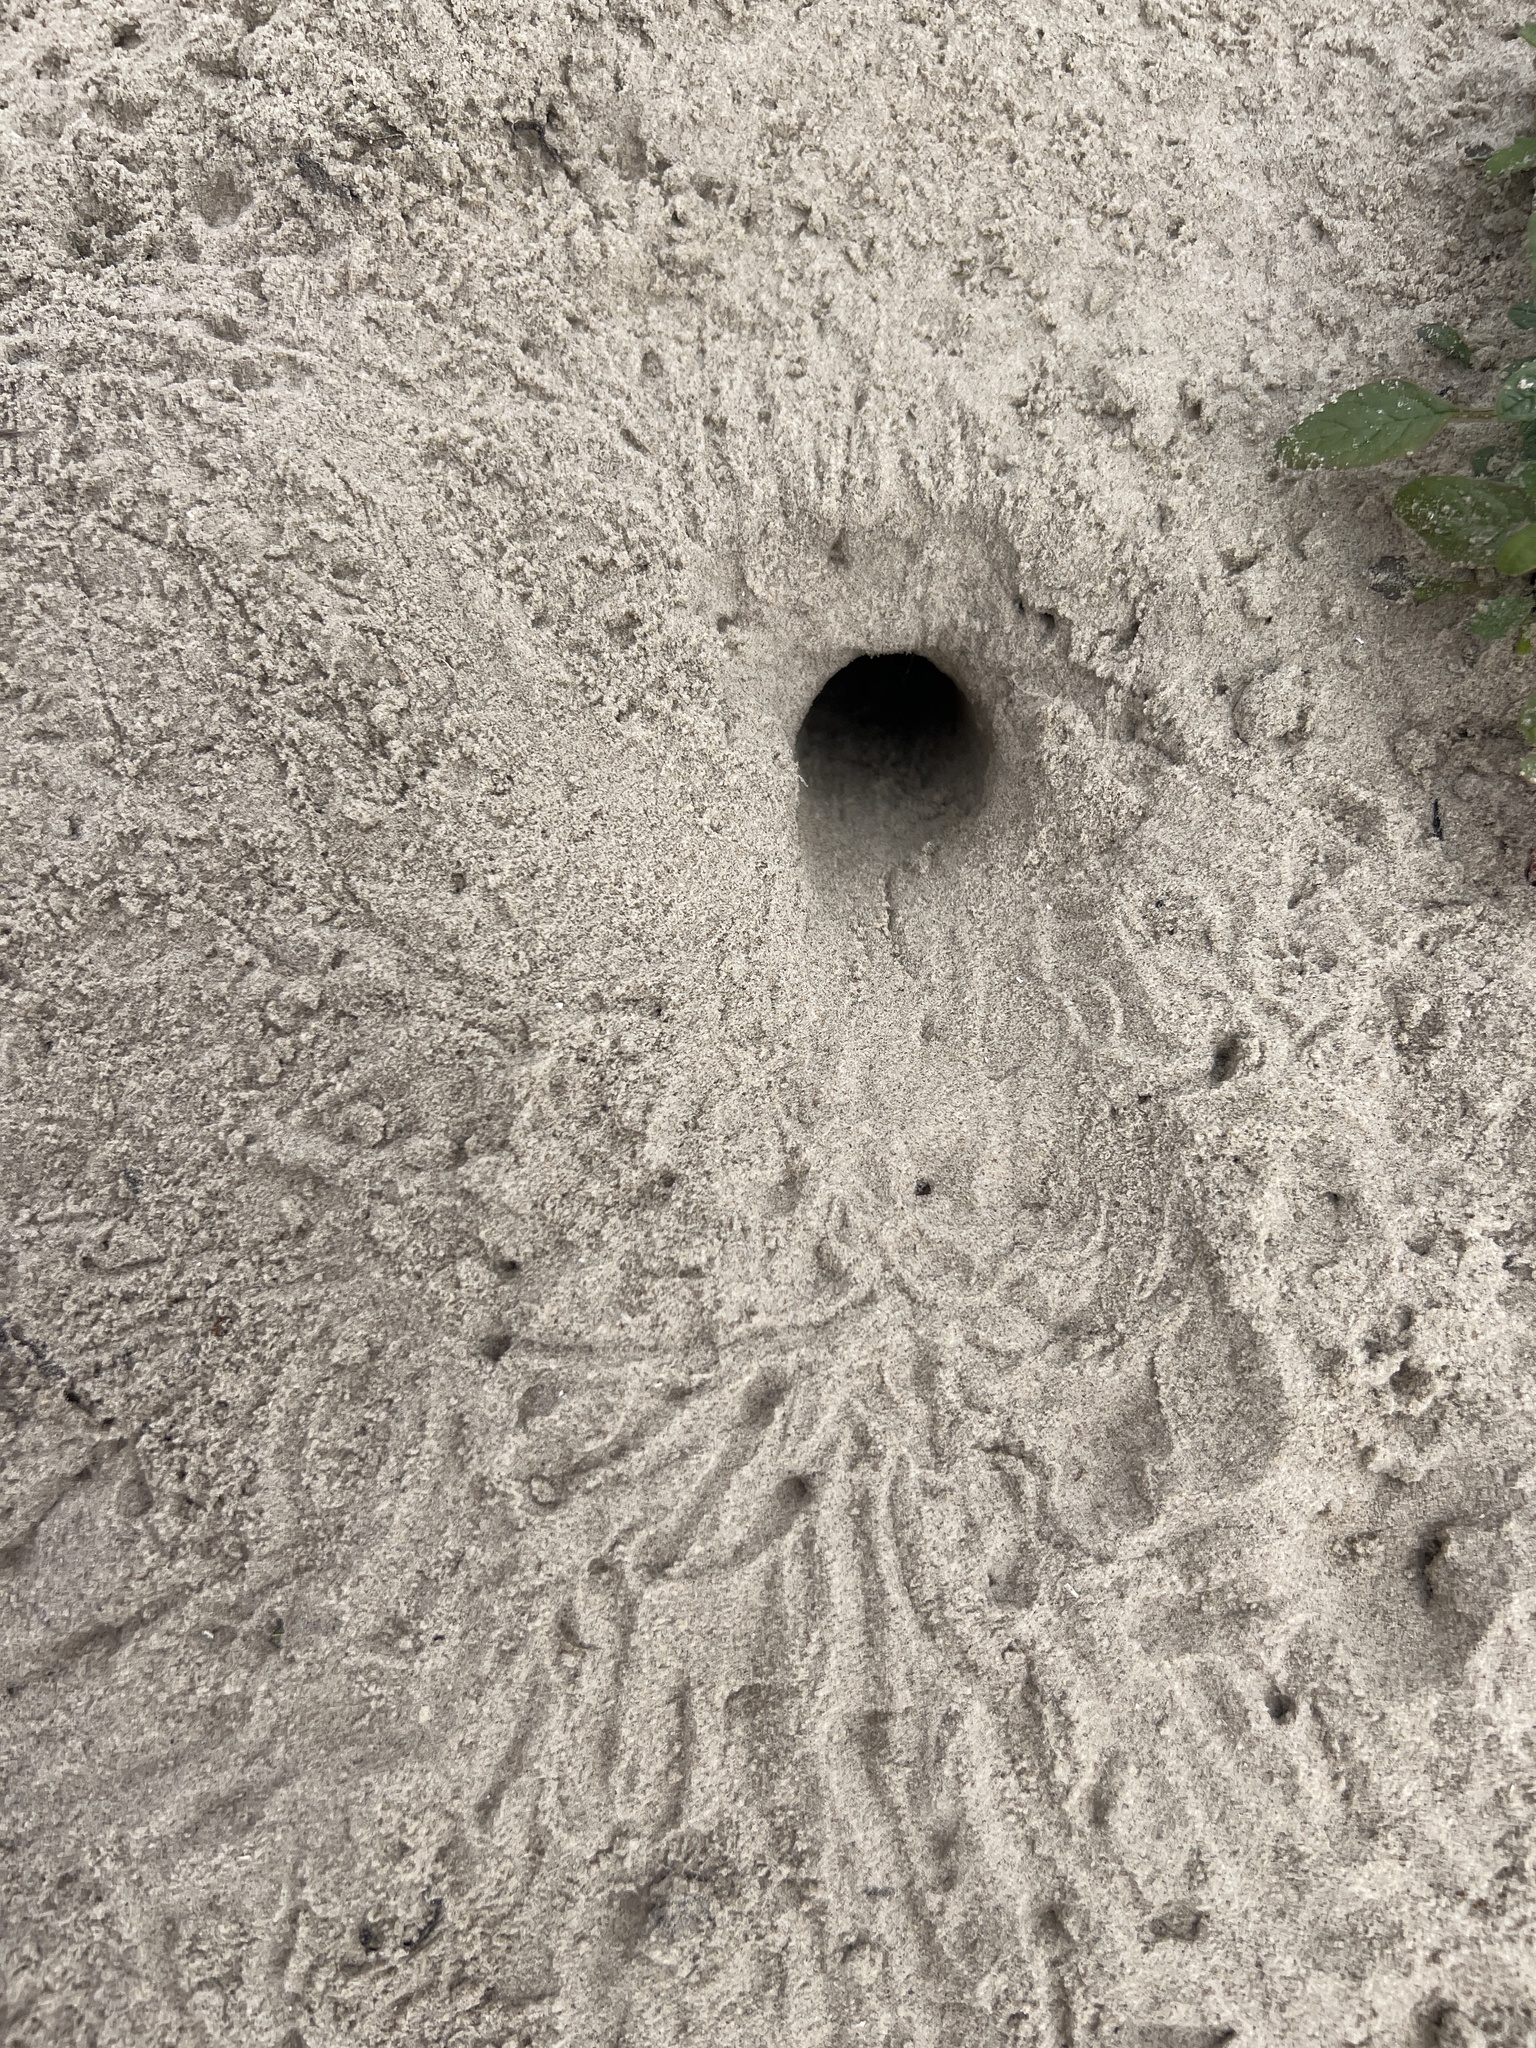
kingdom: Animalia
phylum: Arthropoda
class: Malacostraca
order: Decapoda
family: Ocypodidae
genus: Ocypode
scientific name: Ocypode quadrata
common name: Ghost crab
